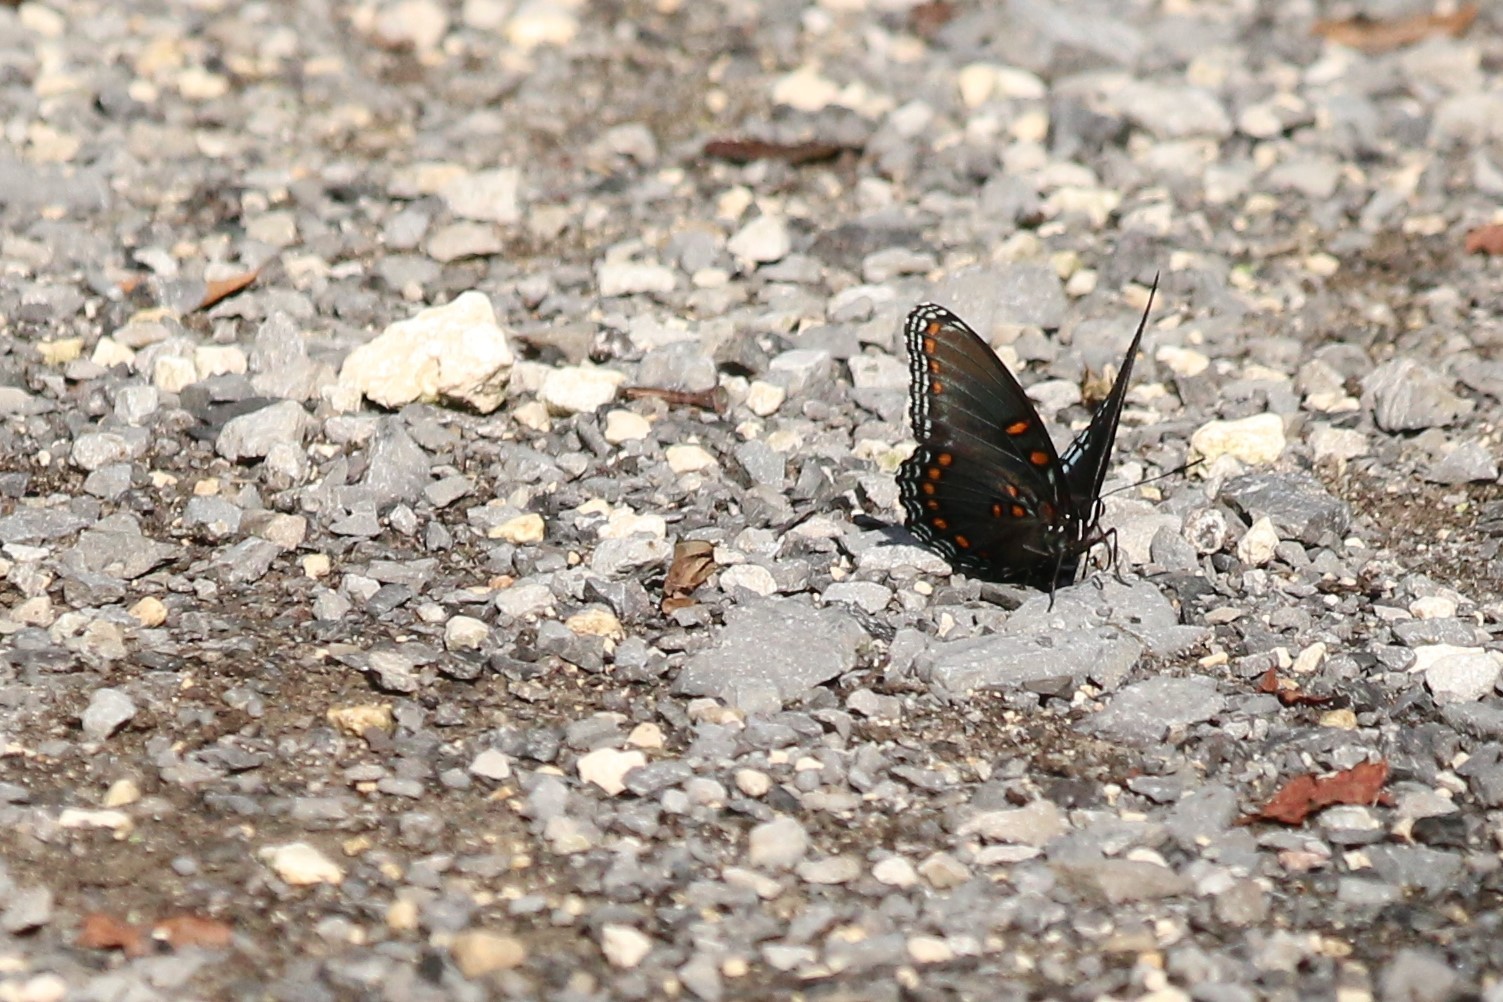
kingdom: Animalia
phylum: Arthropoda
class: Insecta
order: Lepidoptera
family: Nymphalidae
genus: Limenitis
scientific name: Limenitis astyanax
